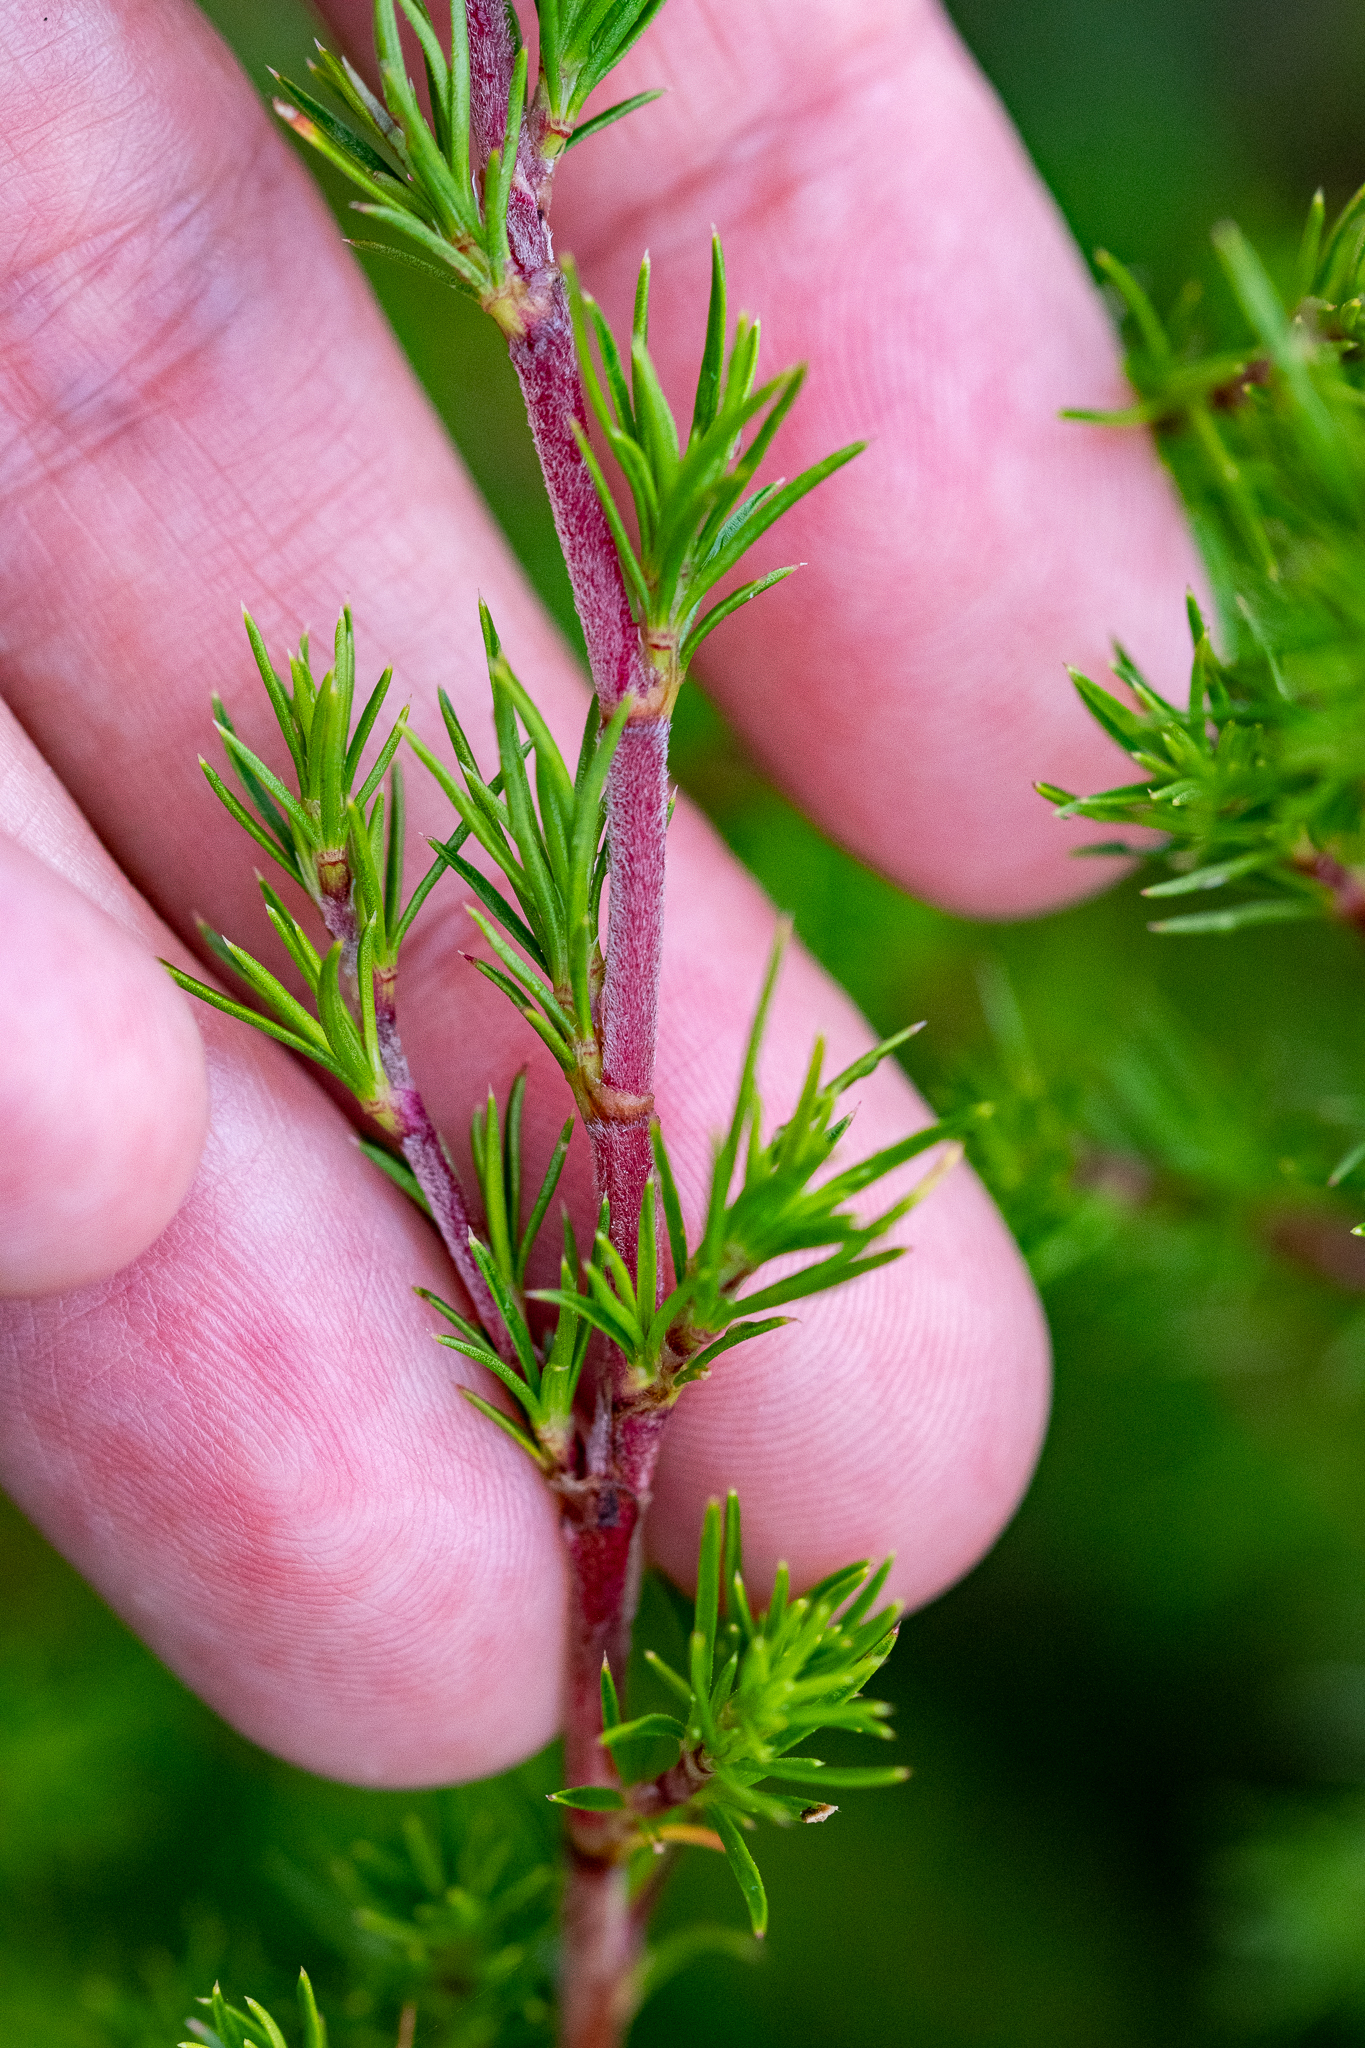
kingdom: Plantae
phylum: Tracheophyta
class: Magnoliopsida
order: Rosales
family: Rosaceae
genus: Cliffortia
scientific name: Cliffortia atrata
